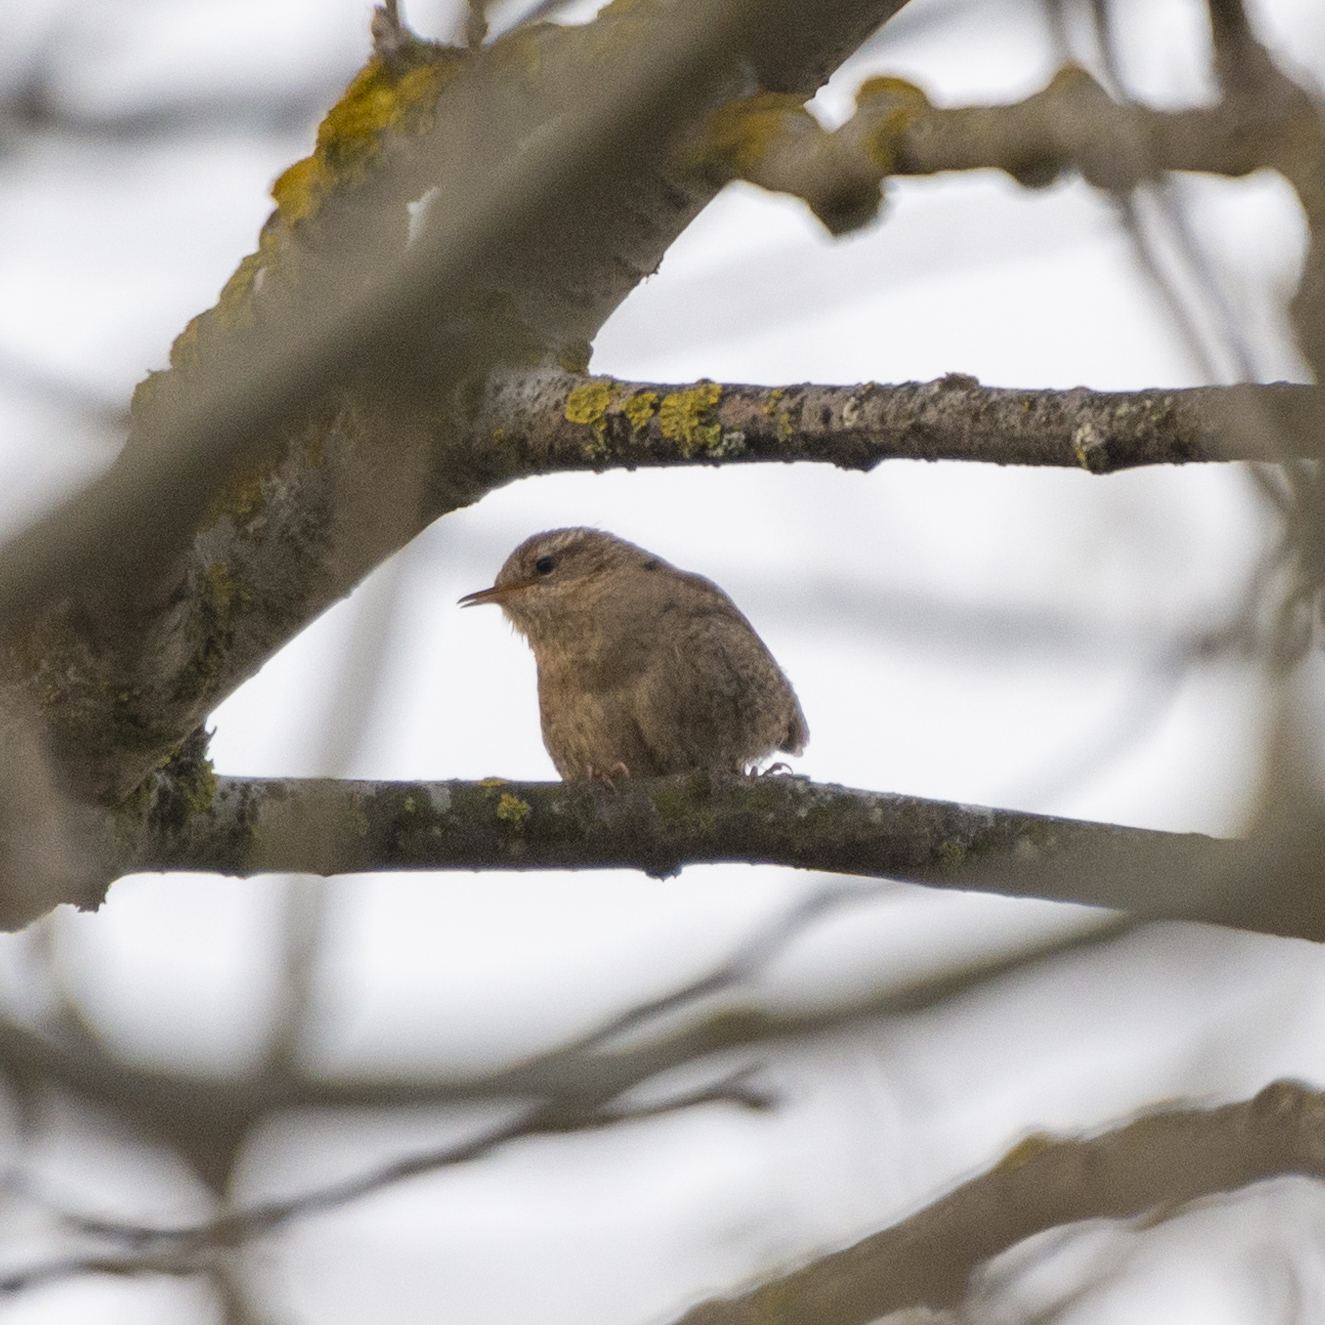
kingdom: Animalia
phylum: Chordata
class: Aves
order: Passeriformes
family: Troglodytidae
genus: Troglodytes
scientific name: Troglodytes troglodytes
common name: Eurasian wren
